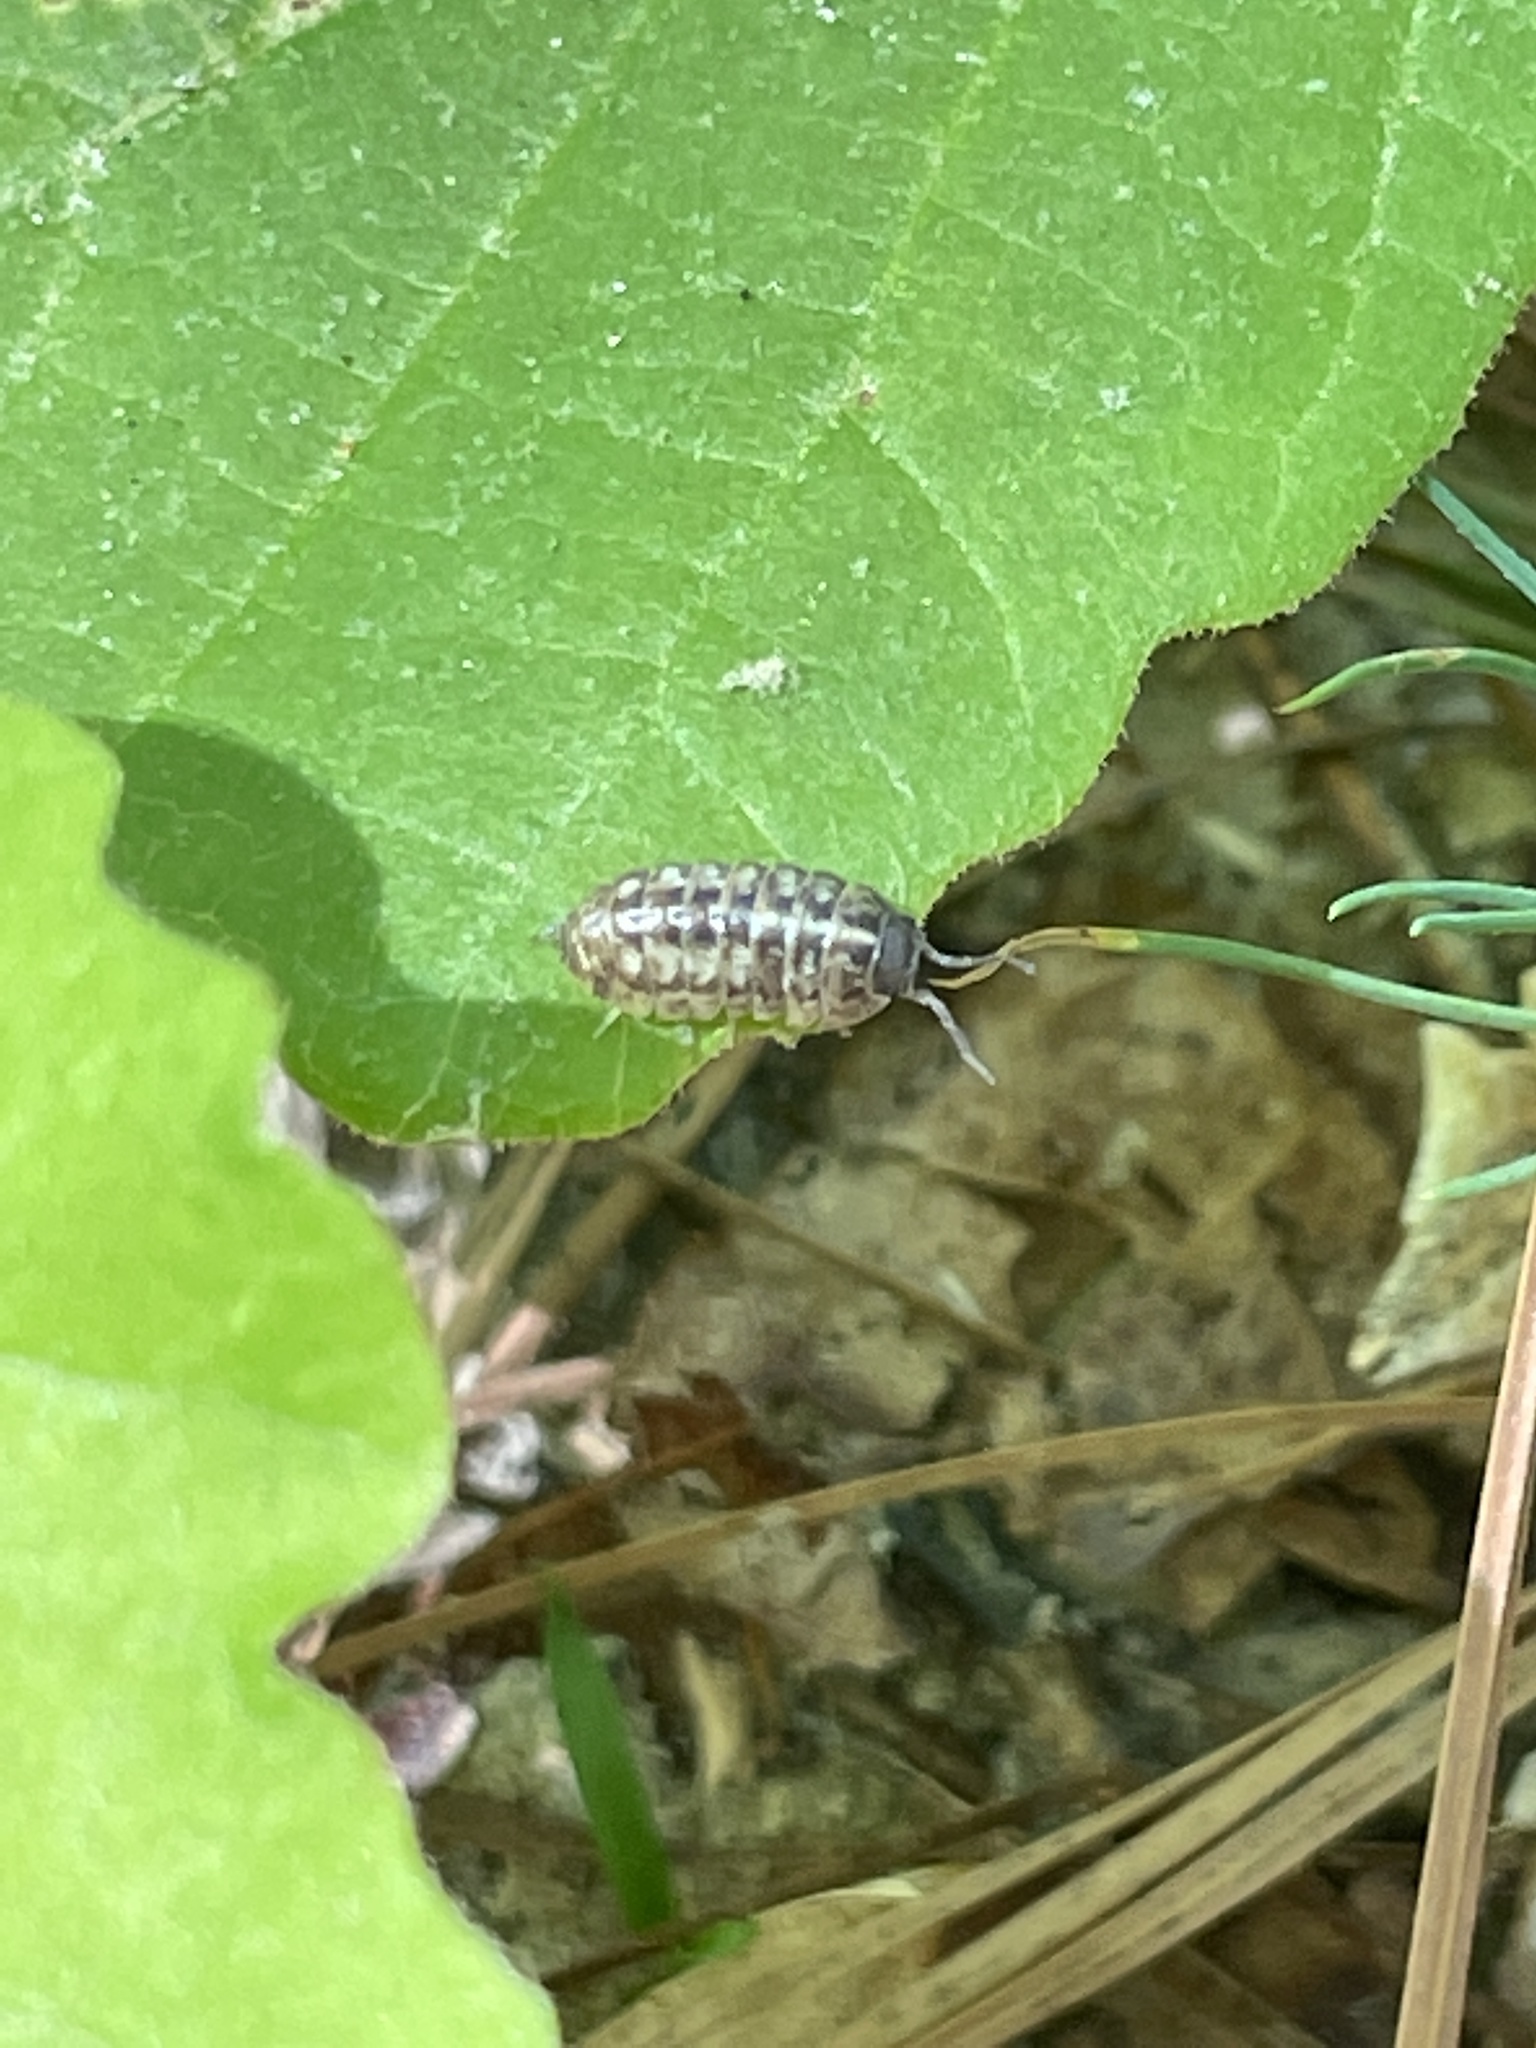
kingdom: Animalia
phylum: Arthropoda
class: Malacostraca
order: Isopoda
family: Armadillidiidae
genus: Armadillidium
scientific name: Armadillidium vulgare
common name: Common pill woodlouse
